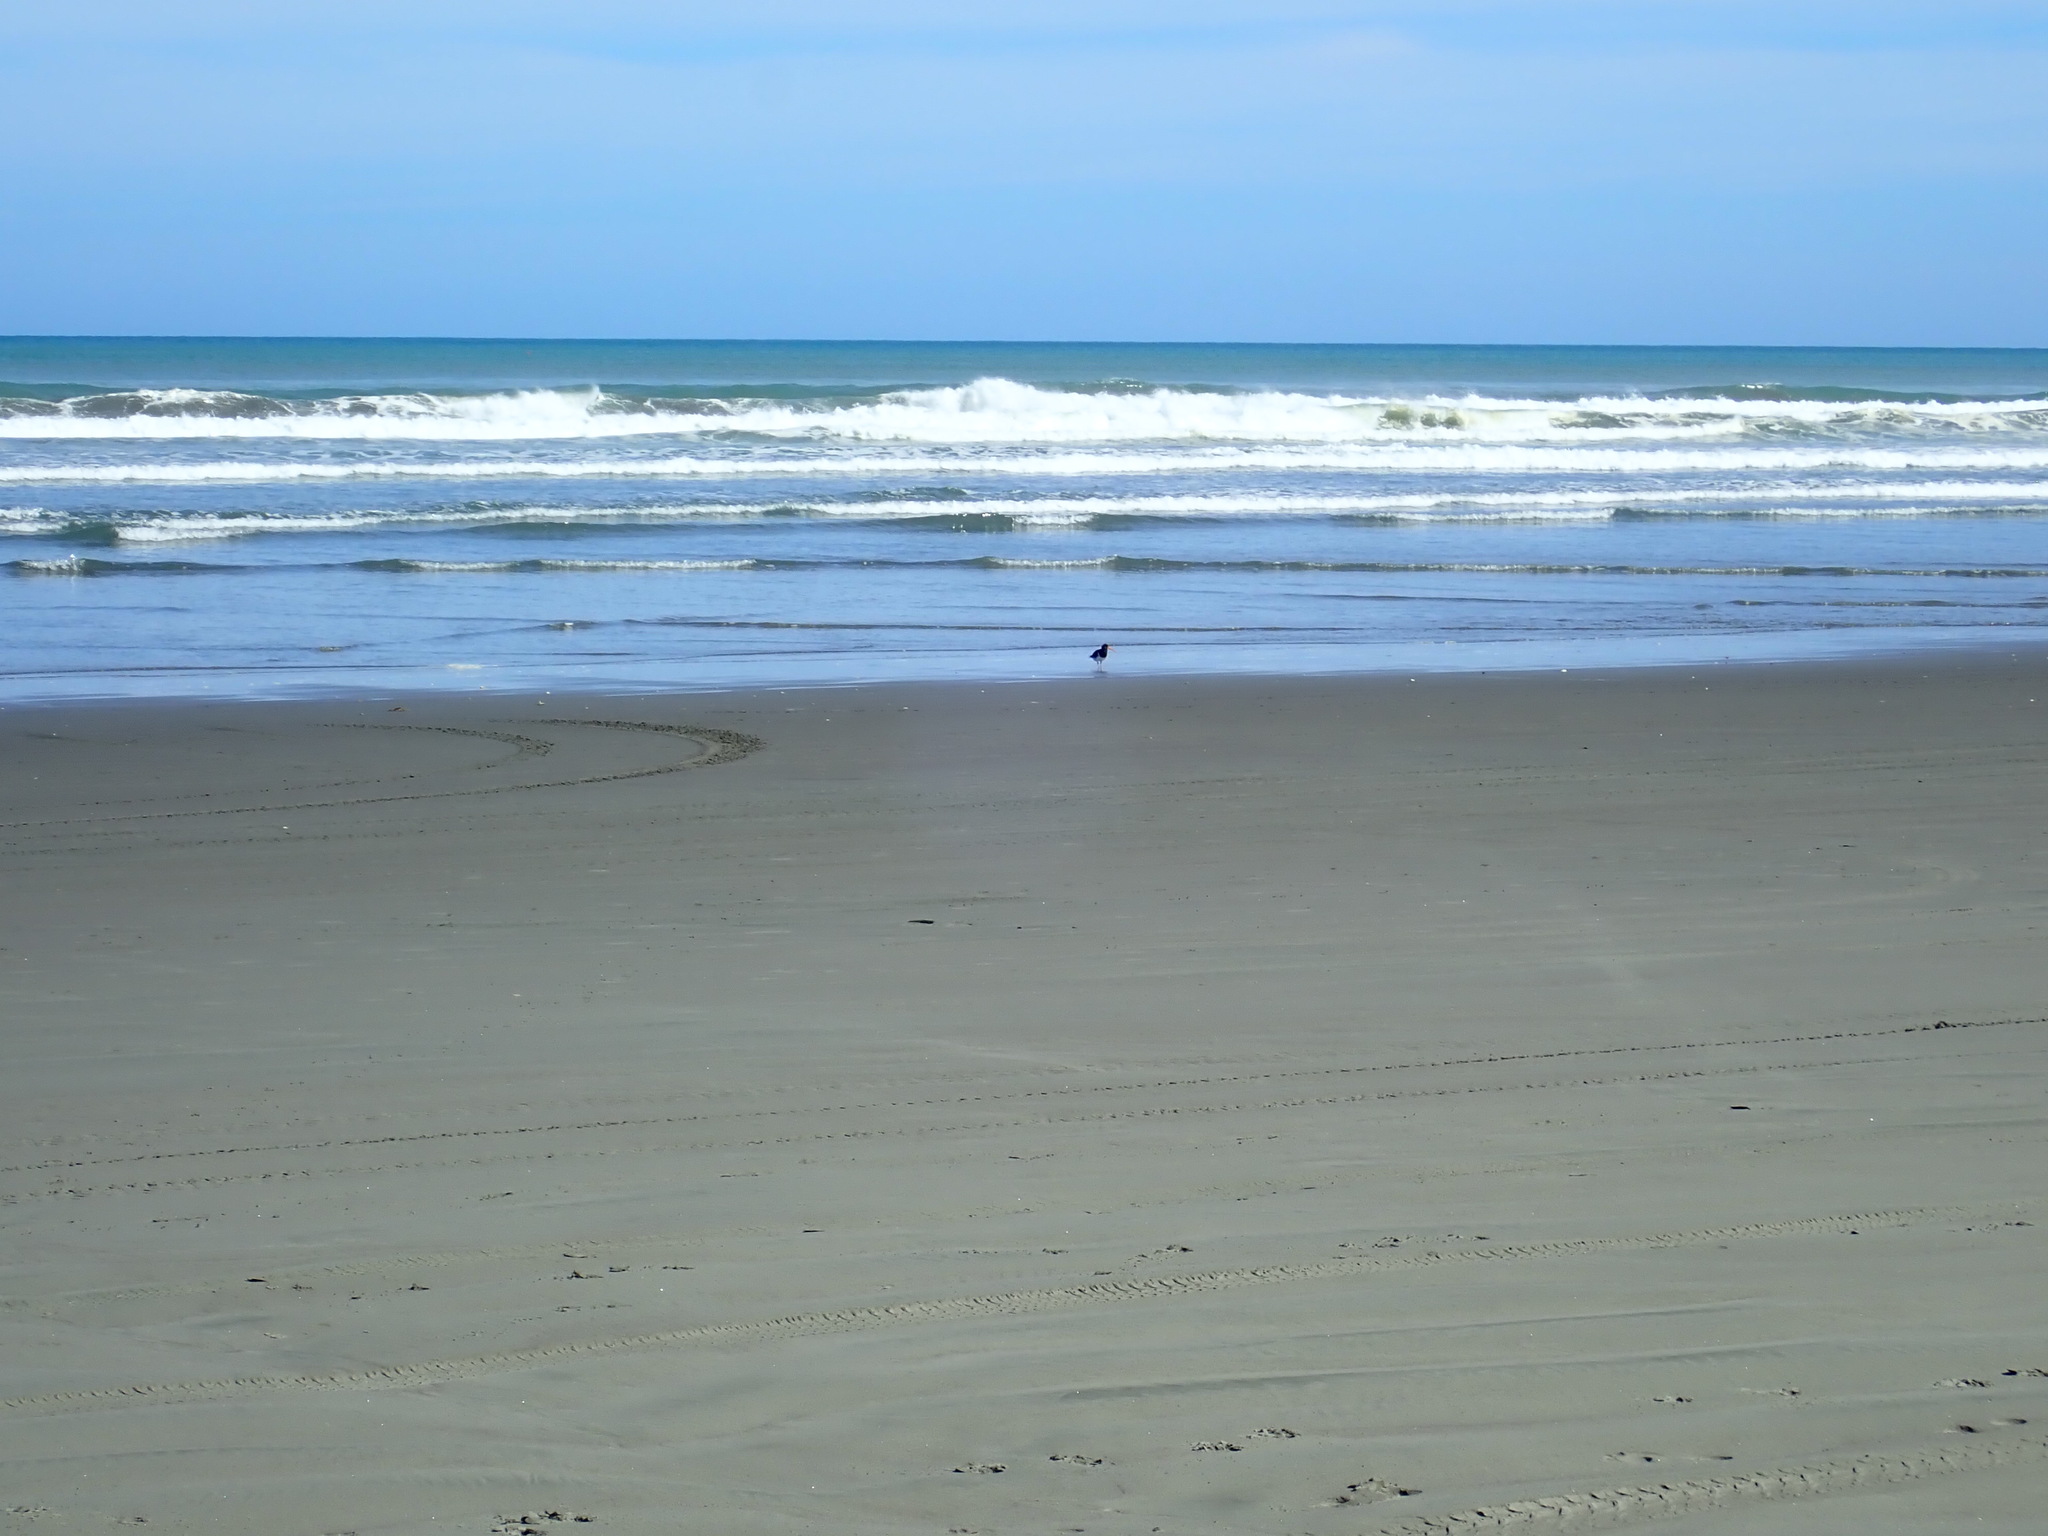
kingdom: Animalia
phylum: Chordata
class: Aves
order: Charadriiformes
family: Haematopodidae
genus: Haematopus
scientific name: Haematopus finschi
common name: South island oystercatcher
